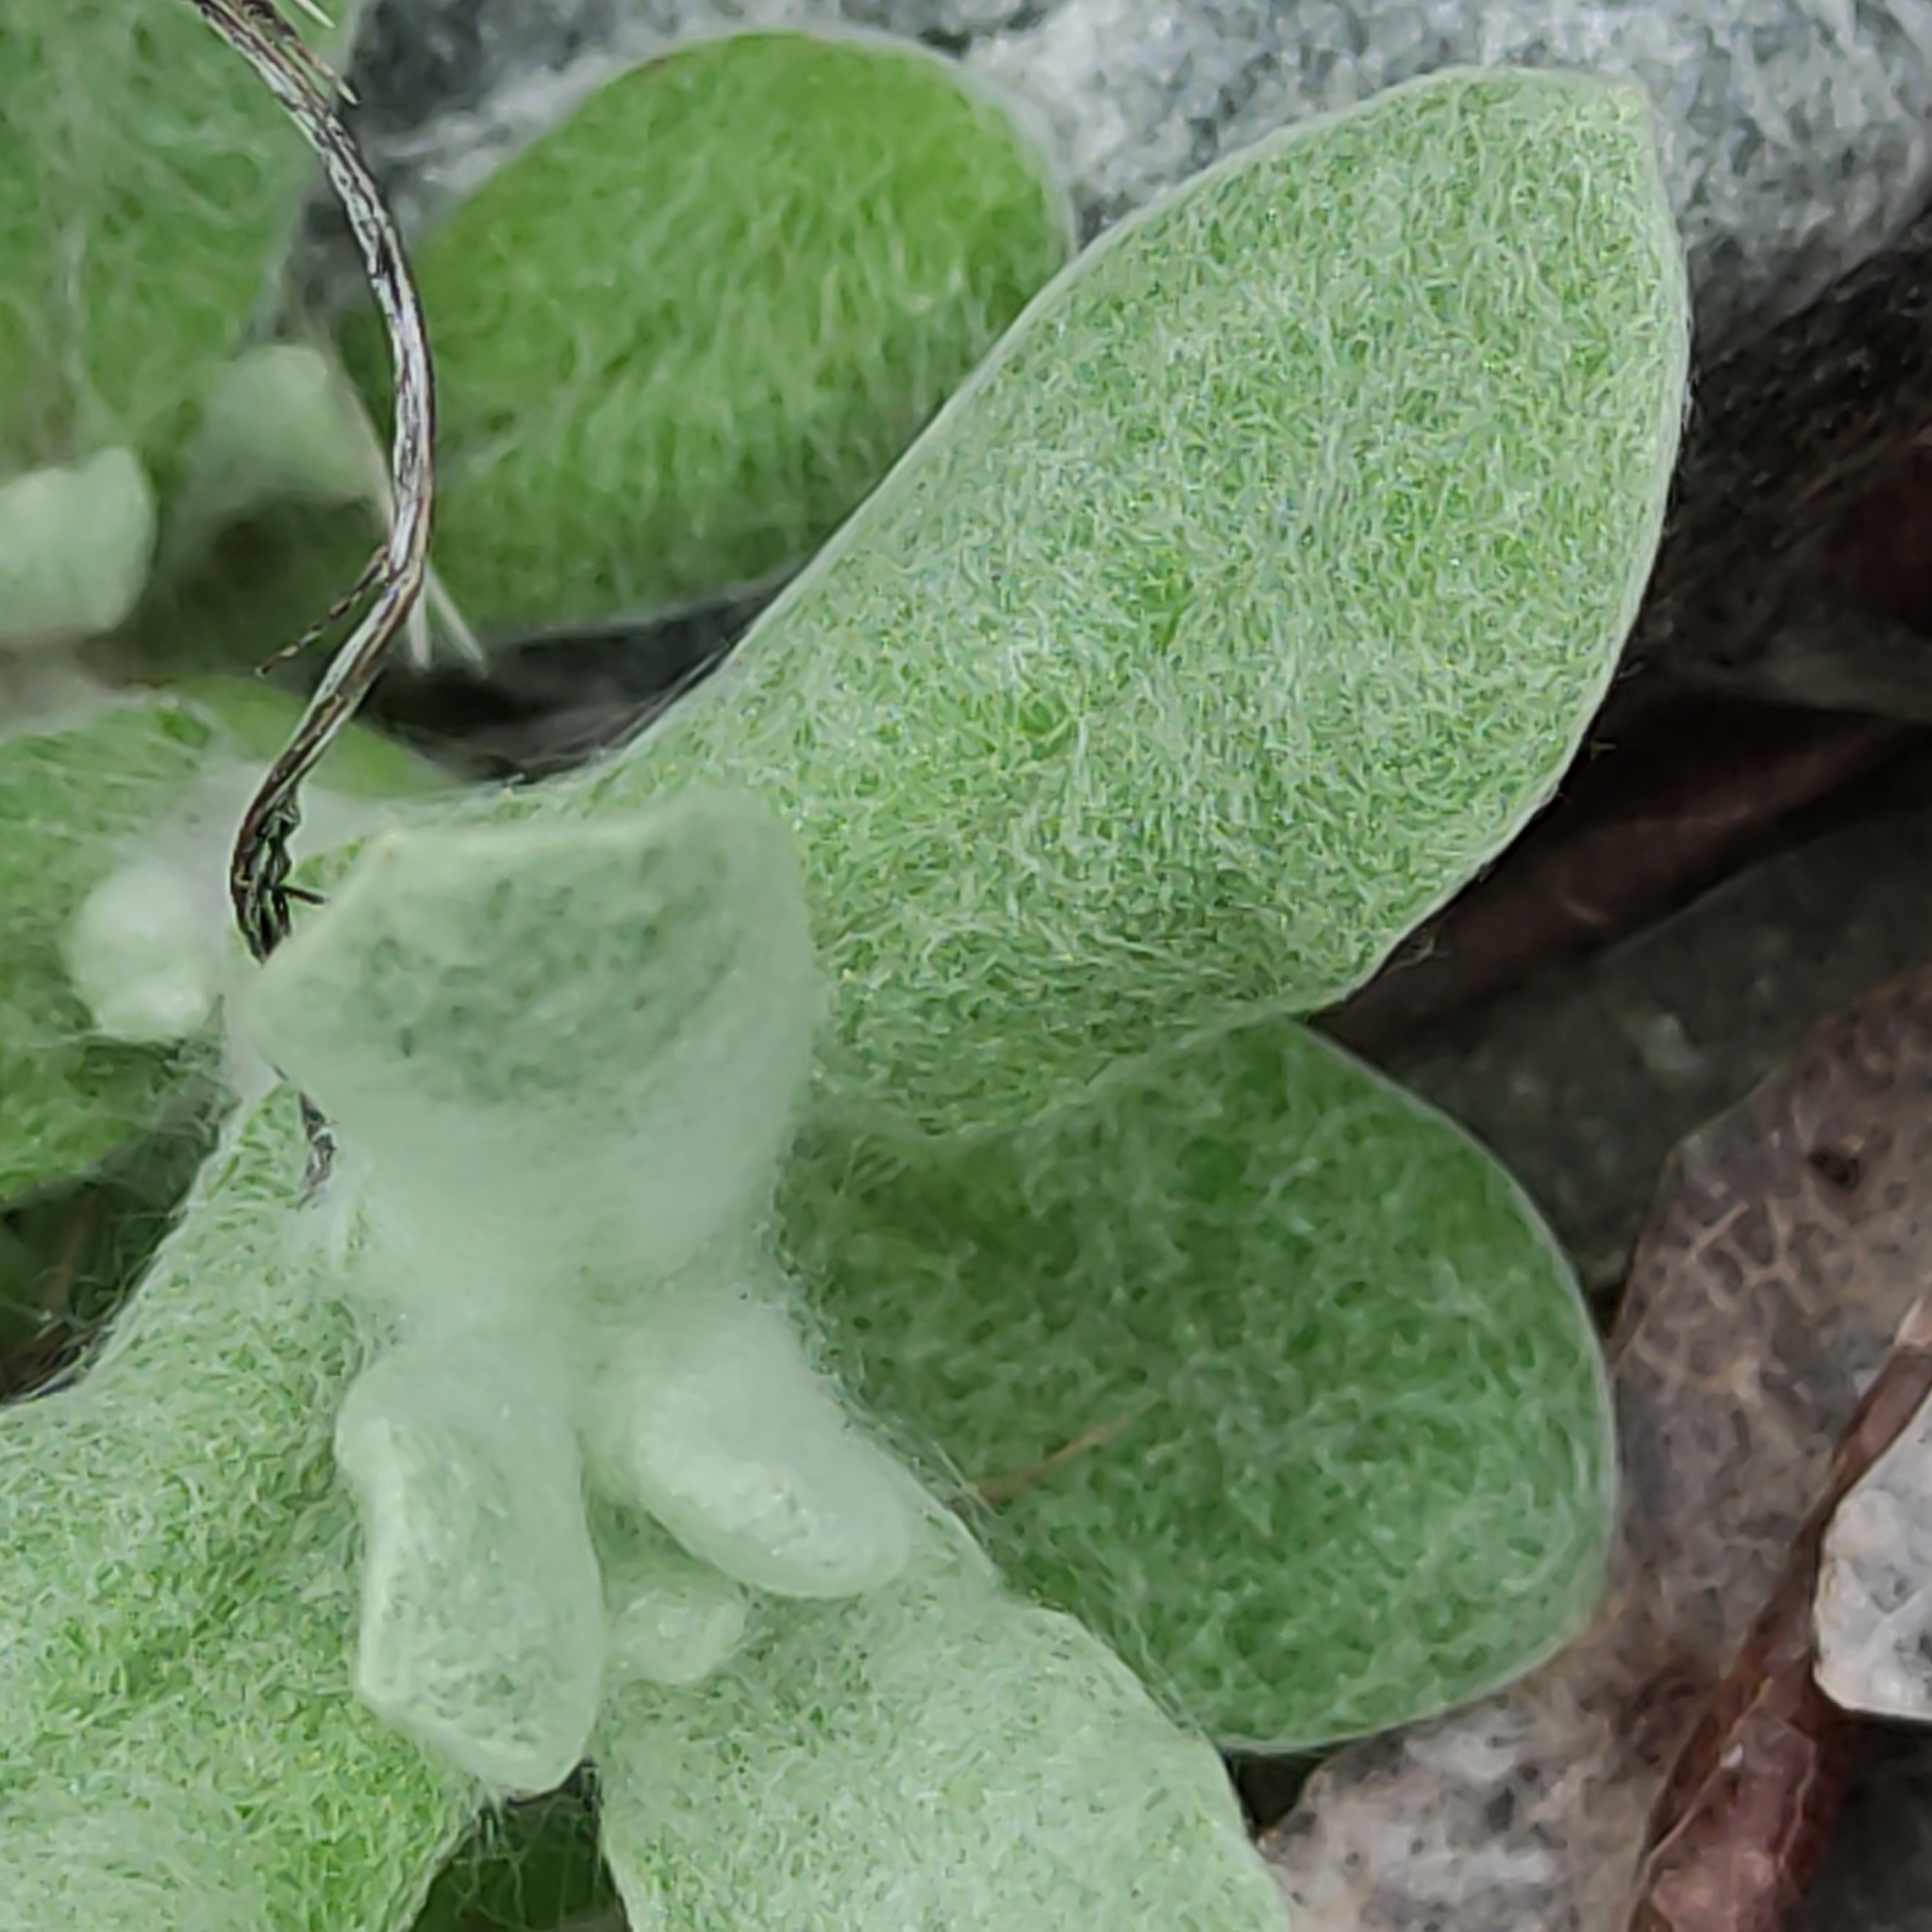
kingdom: Plantae
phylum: Tracheophyta
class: Magnoliopsida
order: Asterales
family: Asteraceae
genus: Helichrysum
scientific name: Helichrysum luteoalbum
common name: Daisy
